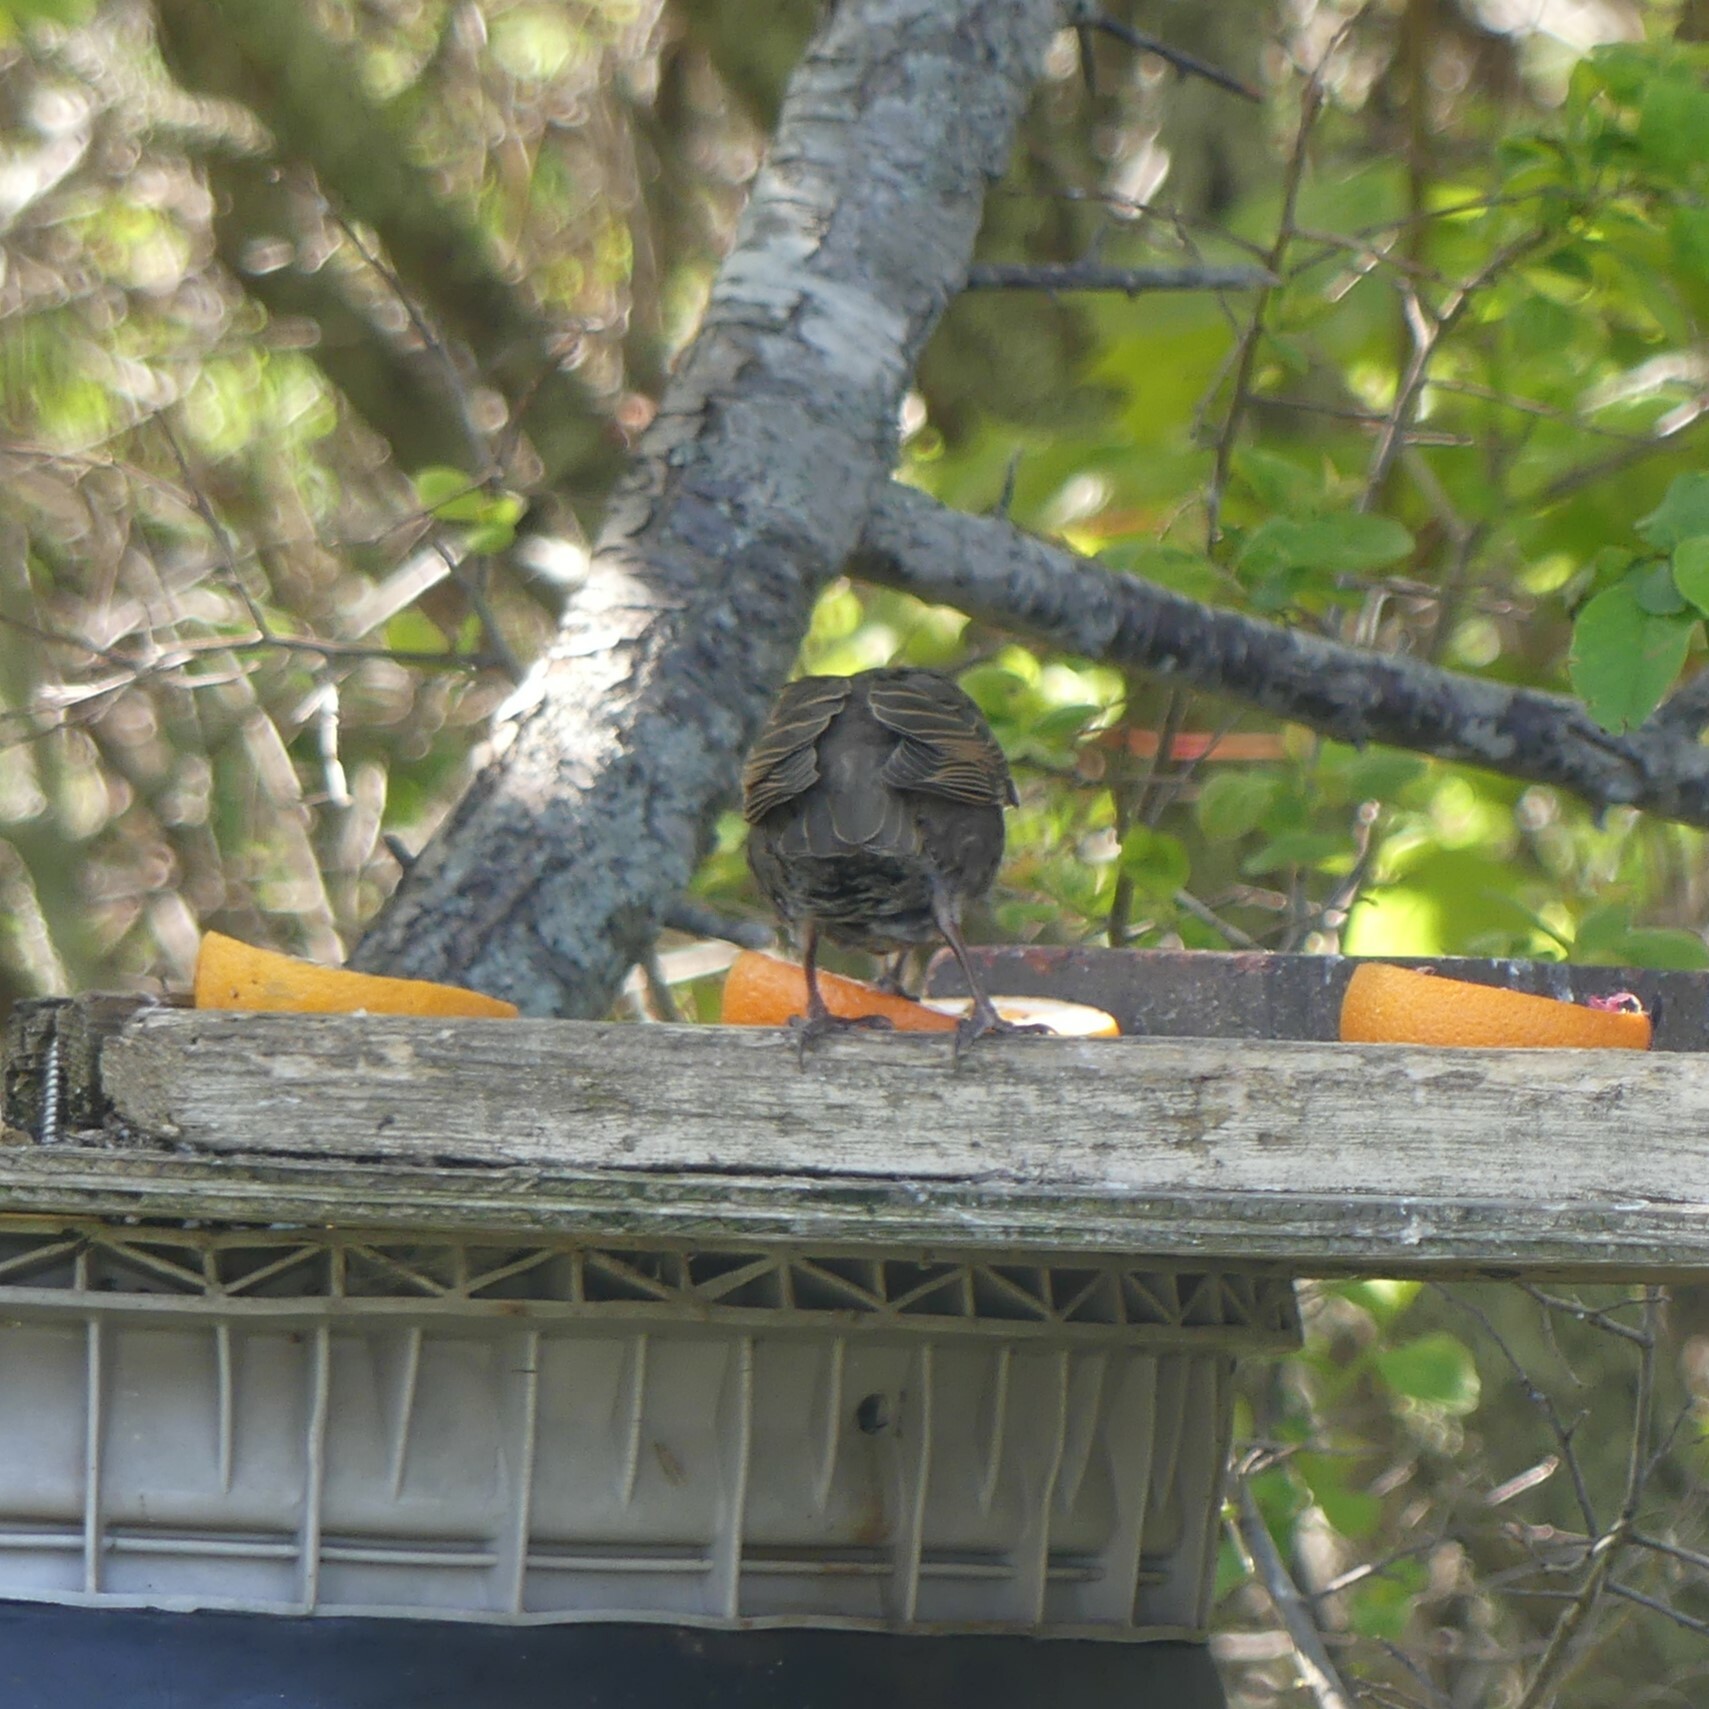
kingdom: Animalia
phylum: Chordata
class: Aves
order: Passeriformes
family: Sturnidae
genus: Sturnus
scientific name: Sturnus vulgaris
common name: Common starling
